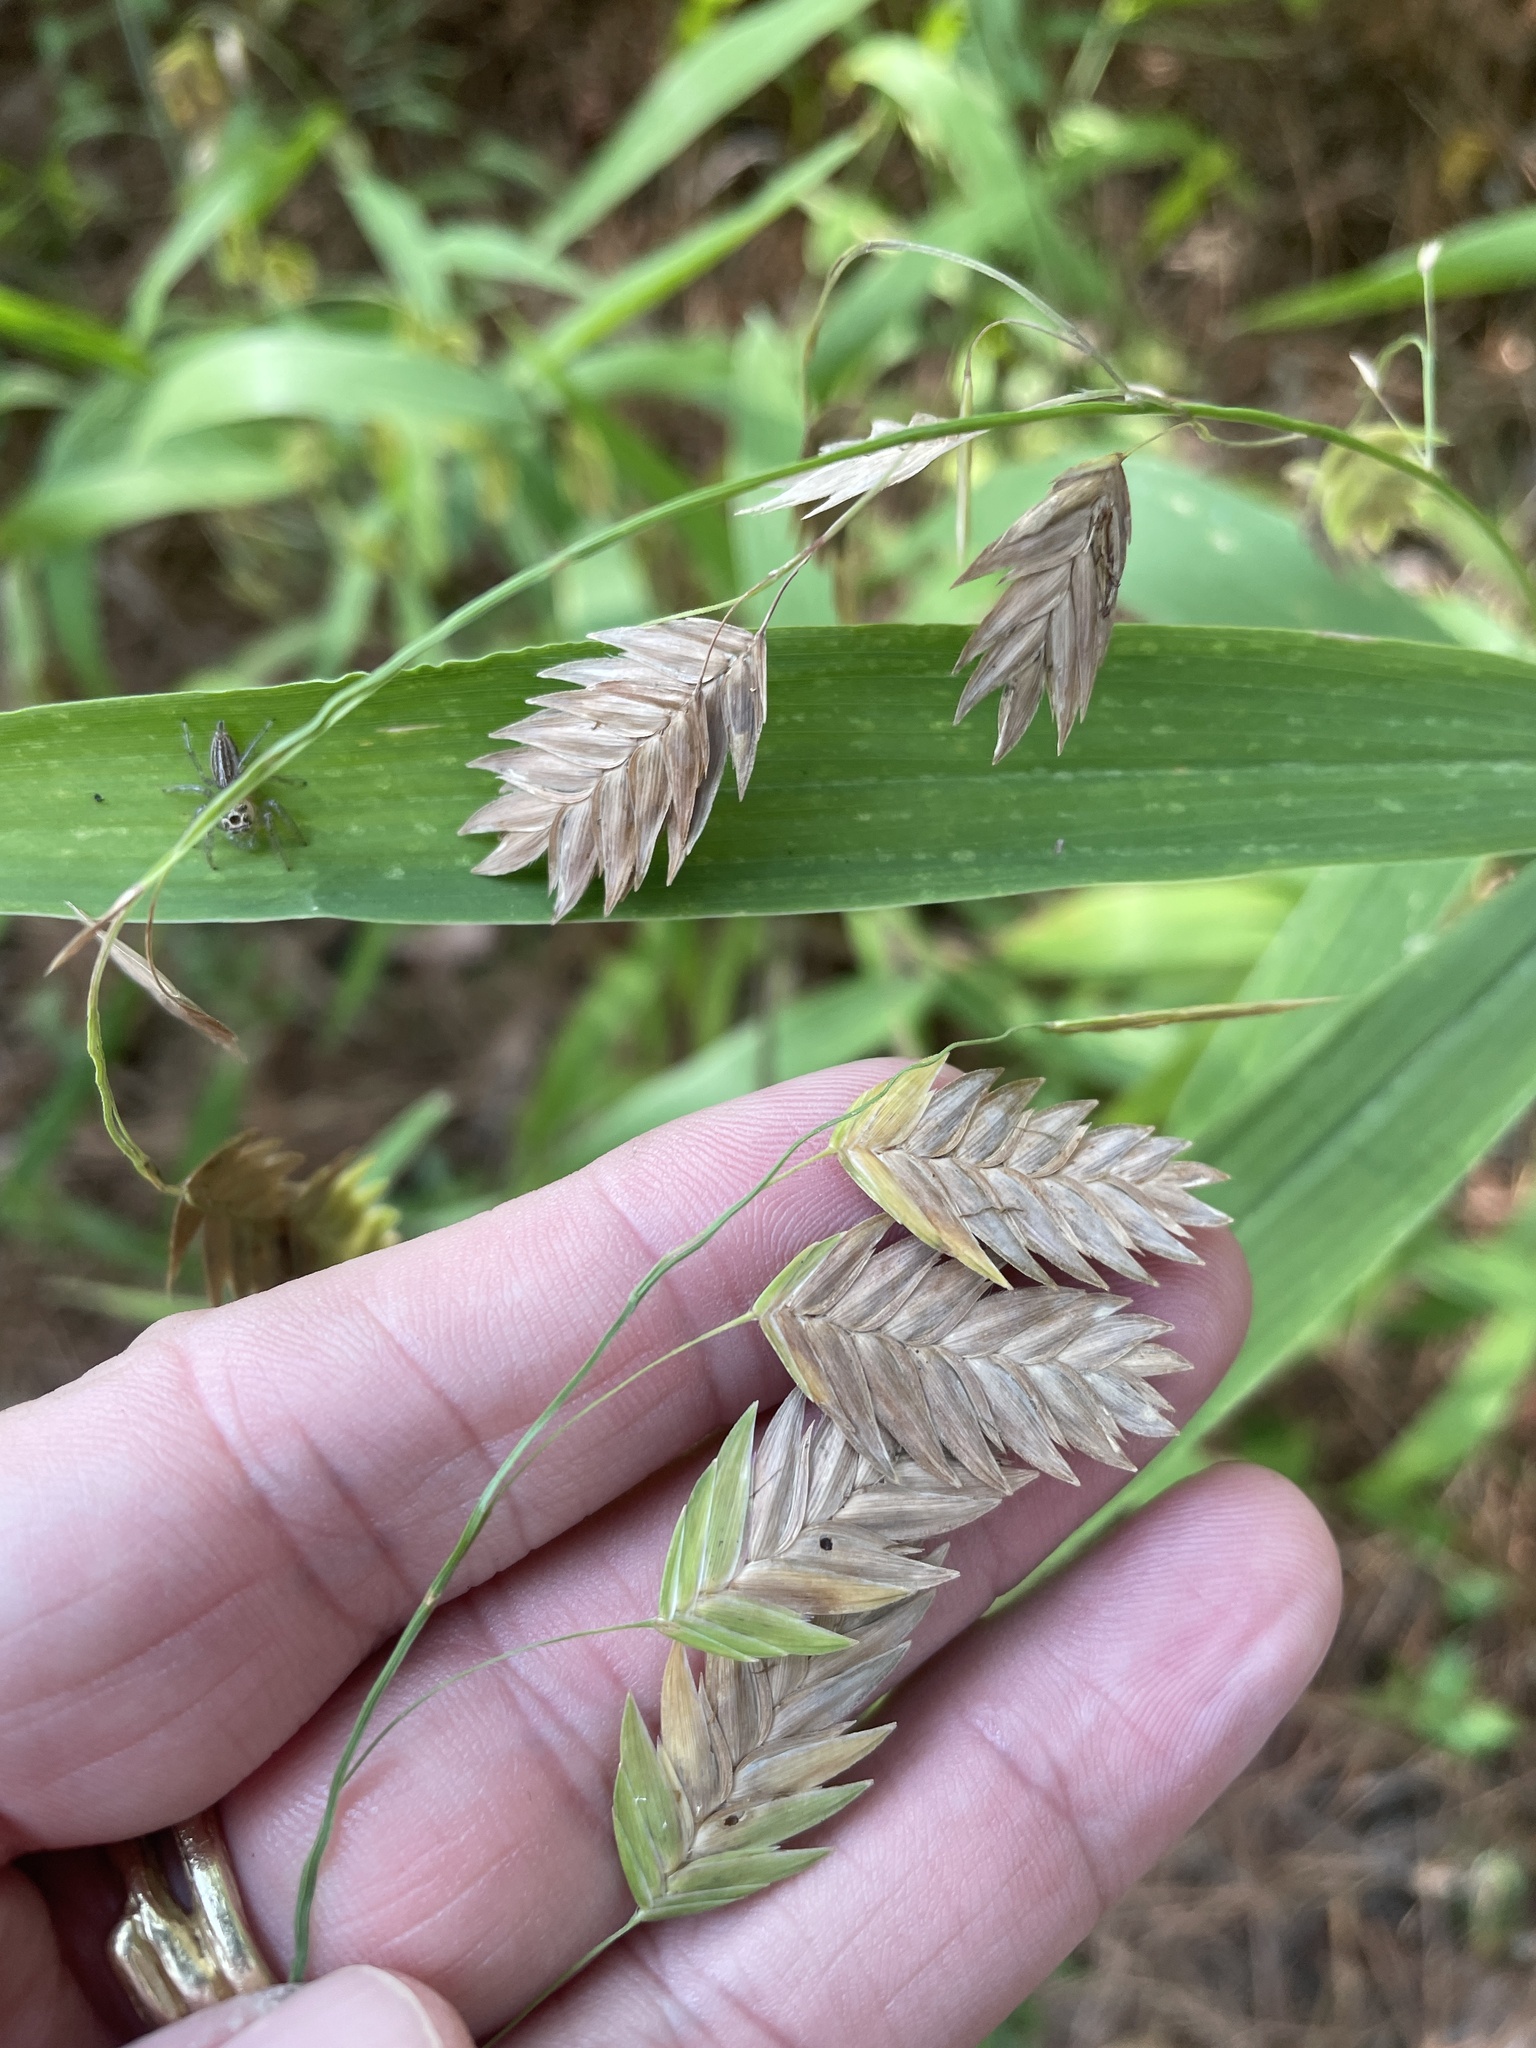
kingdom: Plantae
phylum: Tracheophyta
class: Liliopsida
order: Poales
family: Poaceae
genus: Chasmanthium
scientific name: Chasmanthium latifolium
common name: Broad-leaved chasmanthium
